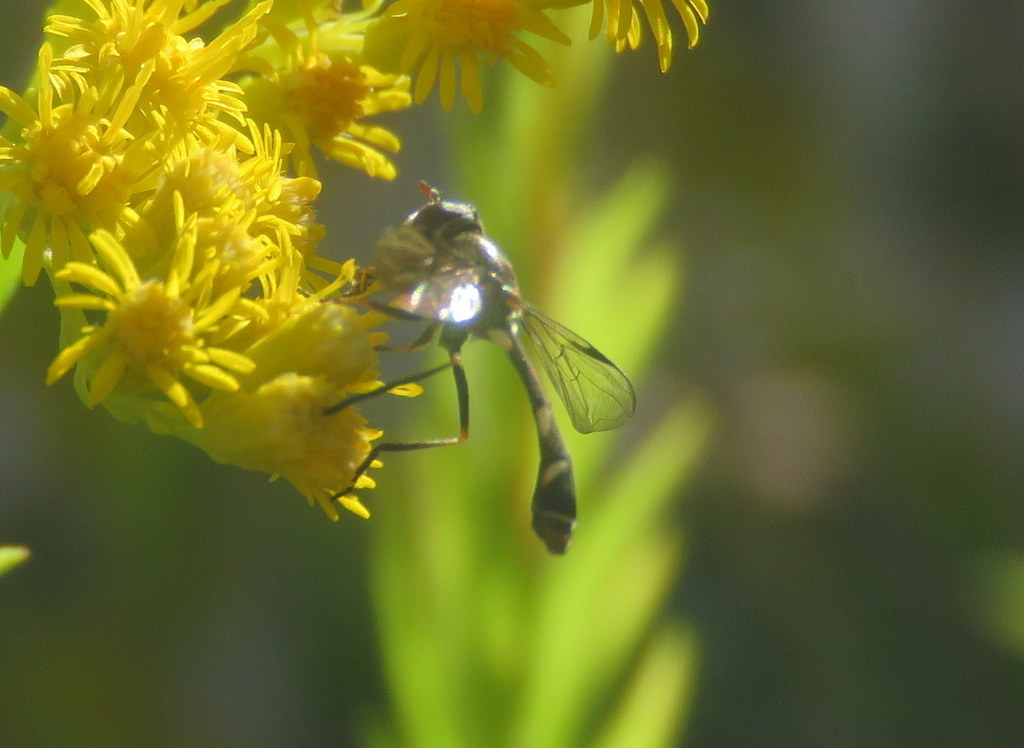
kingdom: Animalia
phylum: Arthropoda
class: Insecta
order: Diptera
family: Syrphidae
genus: Dioprosopa
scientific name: Dioprosopa clavatus
